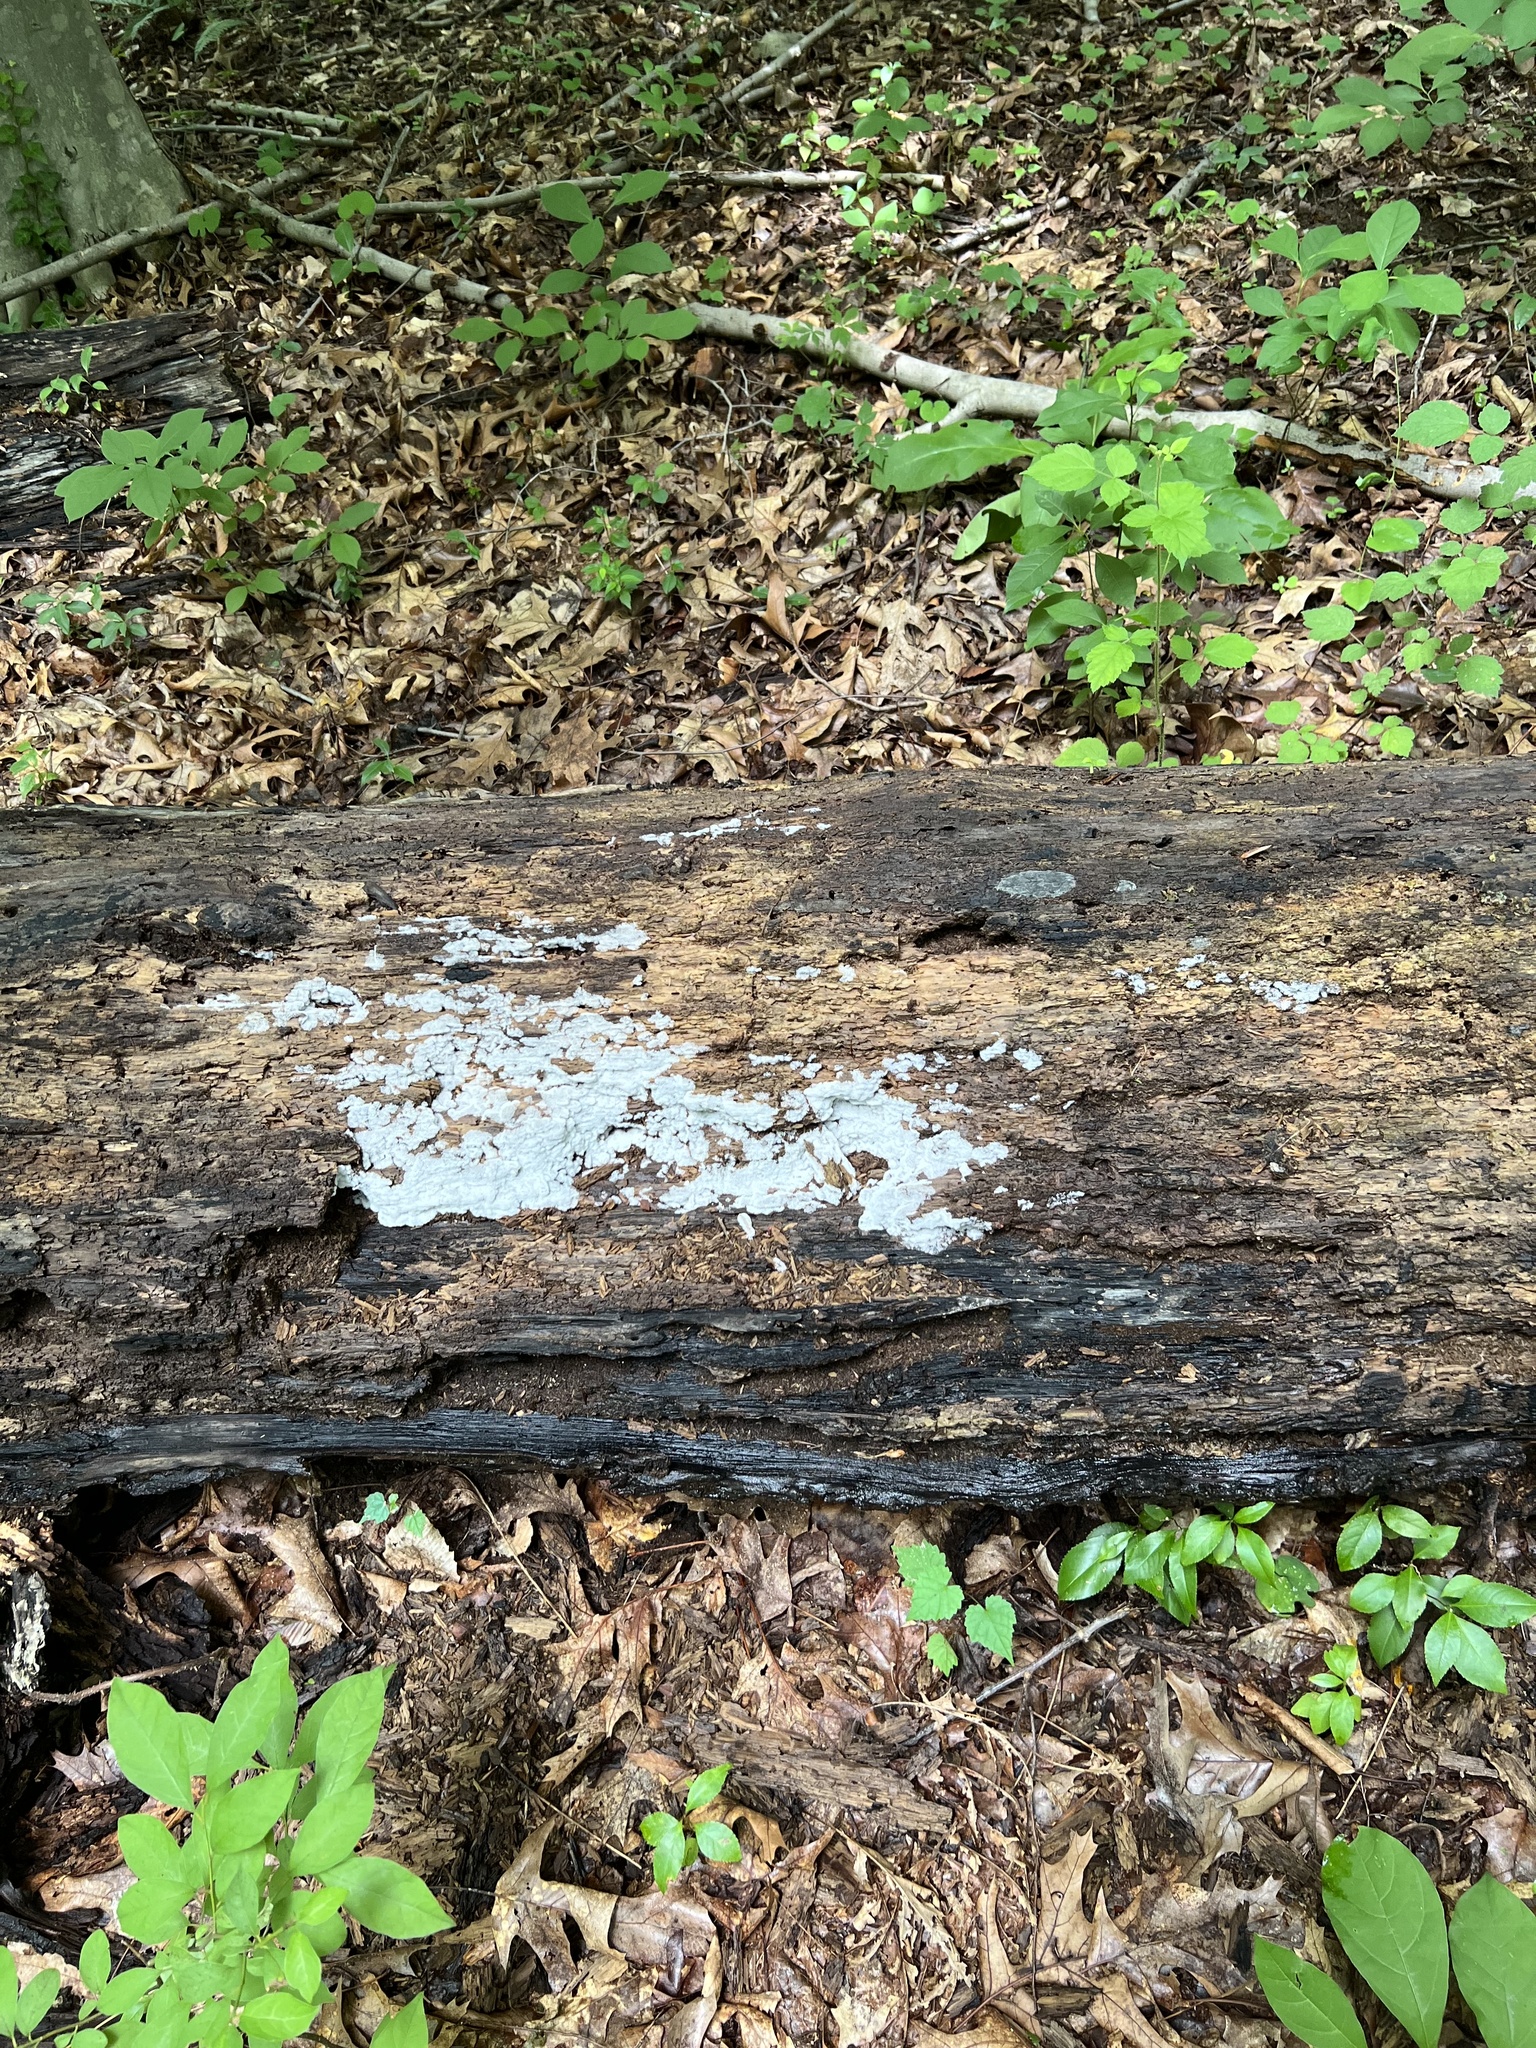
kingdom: Protozoa
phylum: Mycetozoa
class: Protosteliomycetes
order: Ceratiomyxales
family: Ceratiomyxaceae
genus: Ceratiomyxa
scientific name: Ceratiomyxa fruticulosa
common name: Honeycomb coral slime mold
